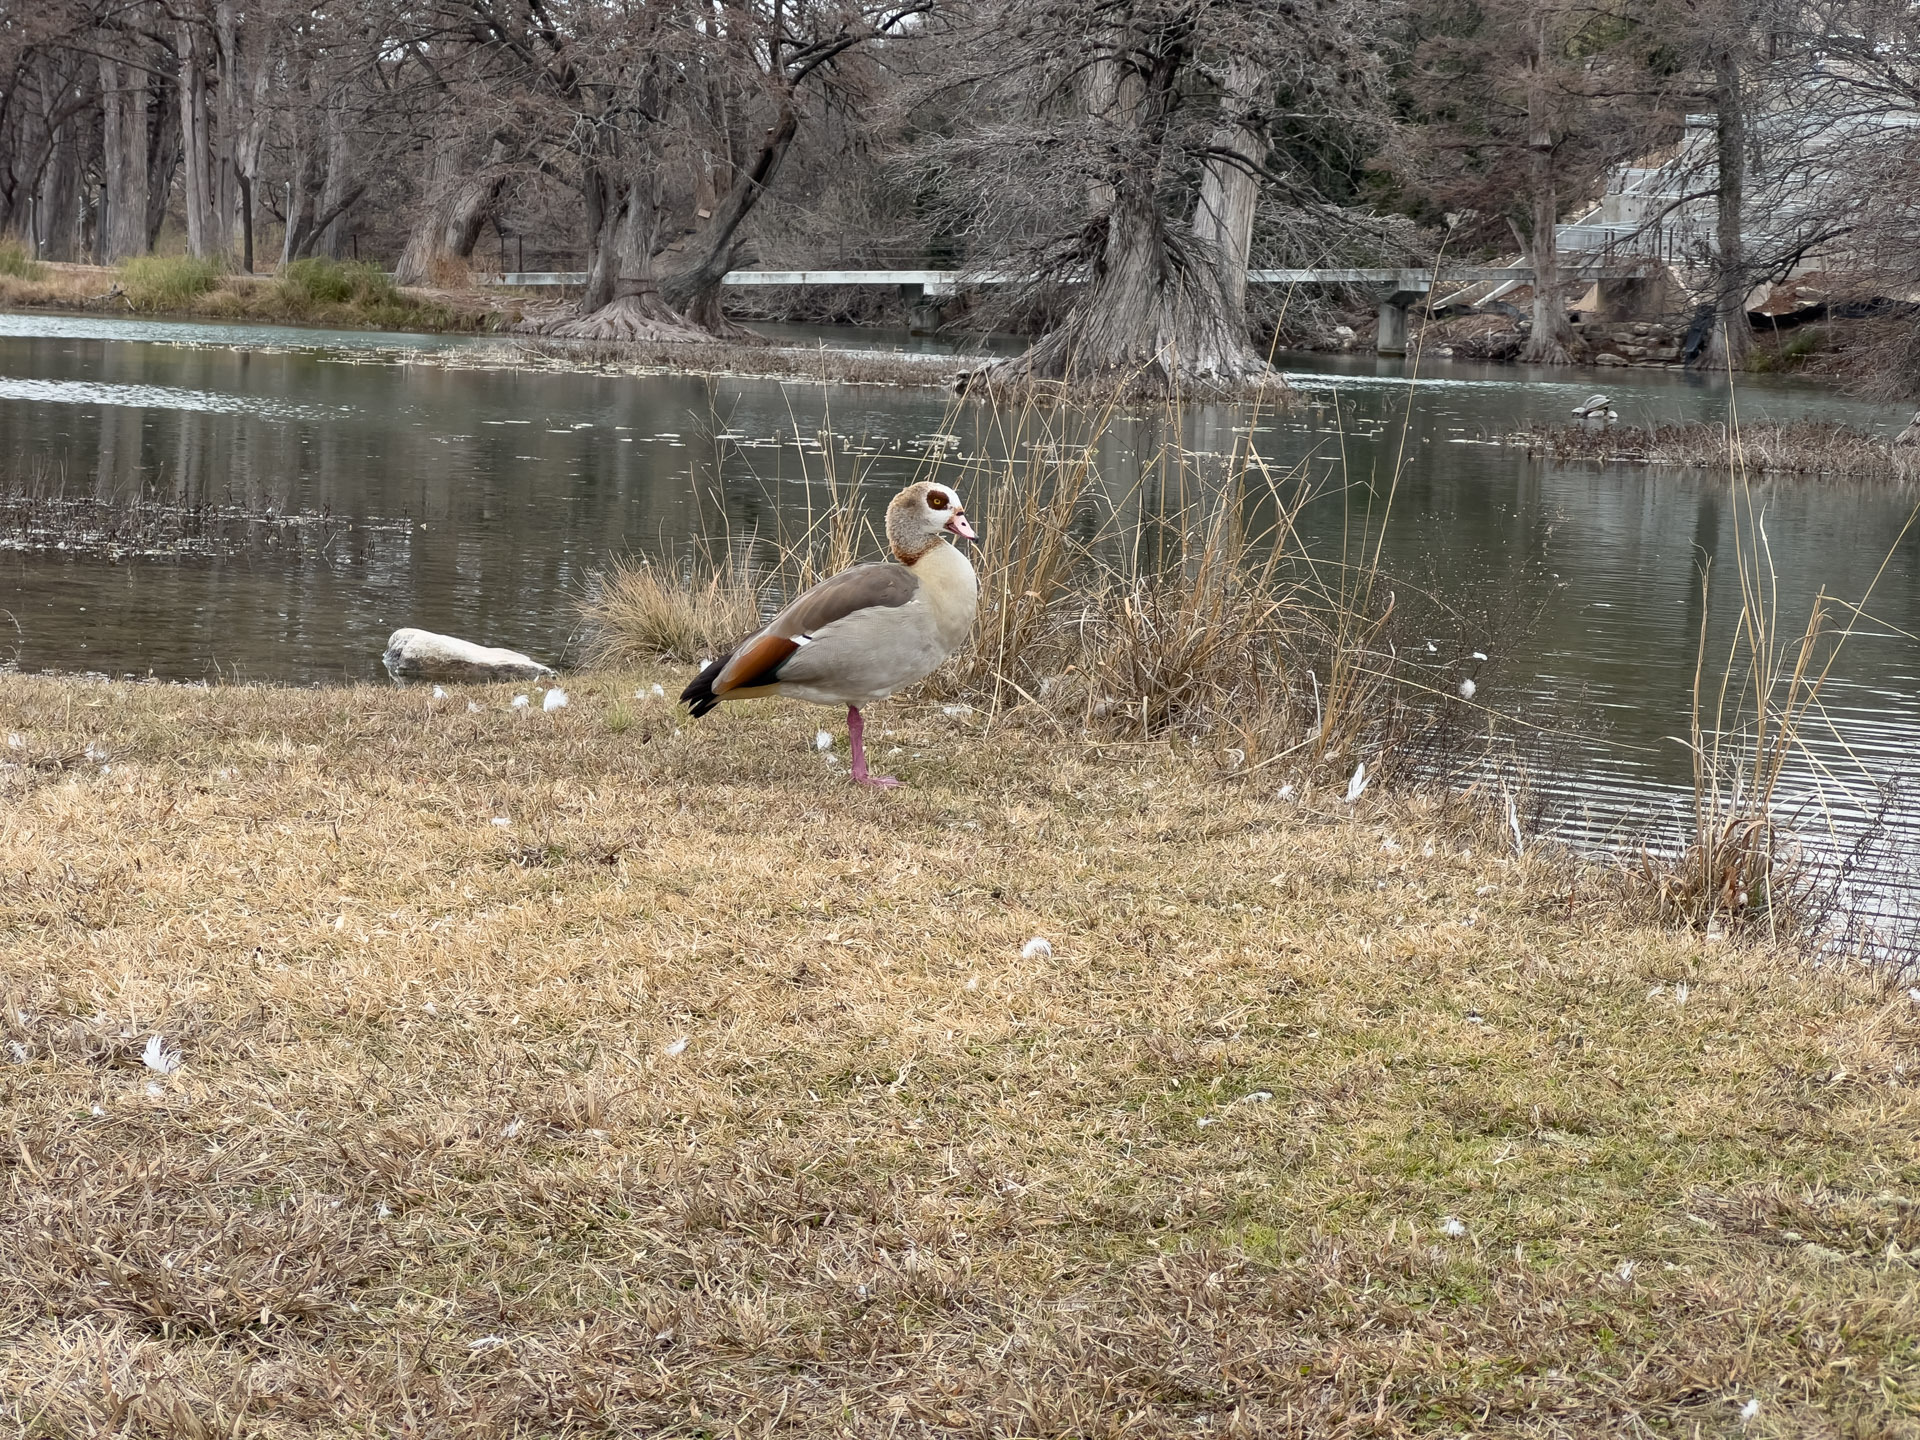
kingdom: Animalia
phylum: Chordata
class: Aves
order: Anseriformes
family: Anatidae
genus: Alopochen
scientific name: Alopochen aegyptiaca
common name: Egyptian goose
